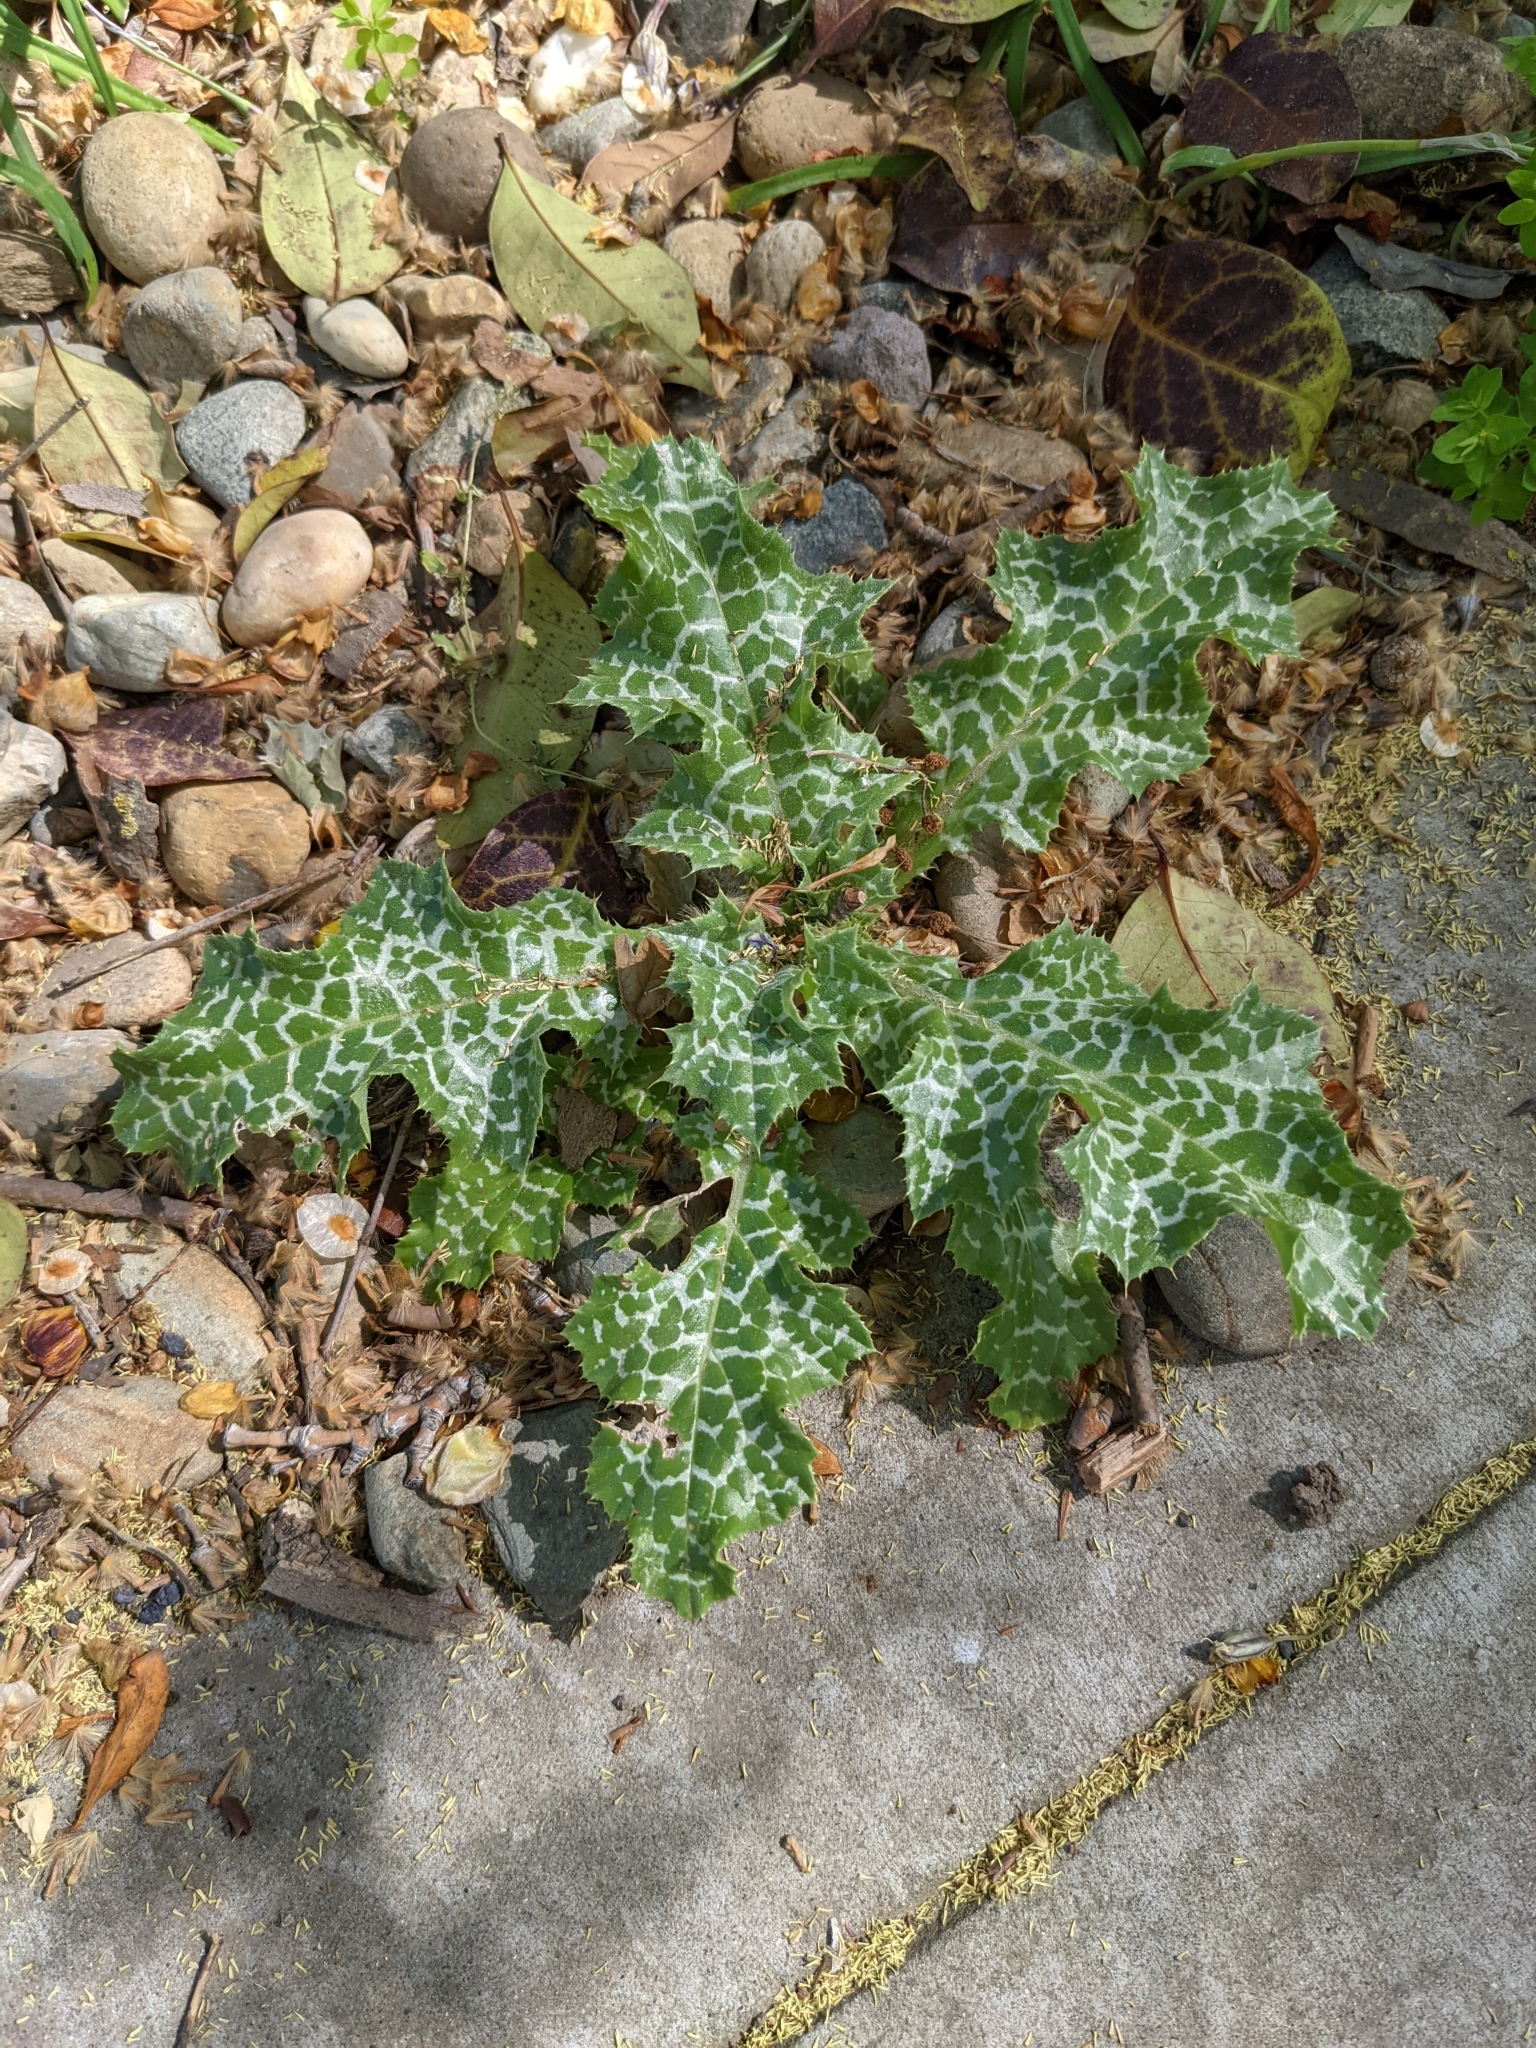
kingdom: Plantae
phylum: Tracheophyta
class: Magnoliopsida
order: Asterales
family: Asteraceae
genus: Silybum
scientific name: Silybum marianum
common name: Milk thistle
